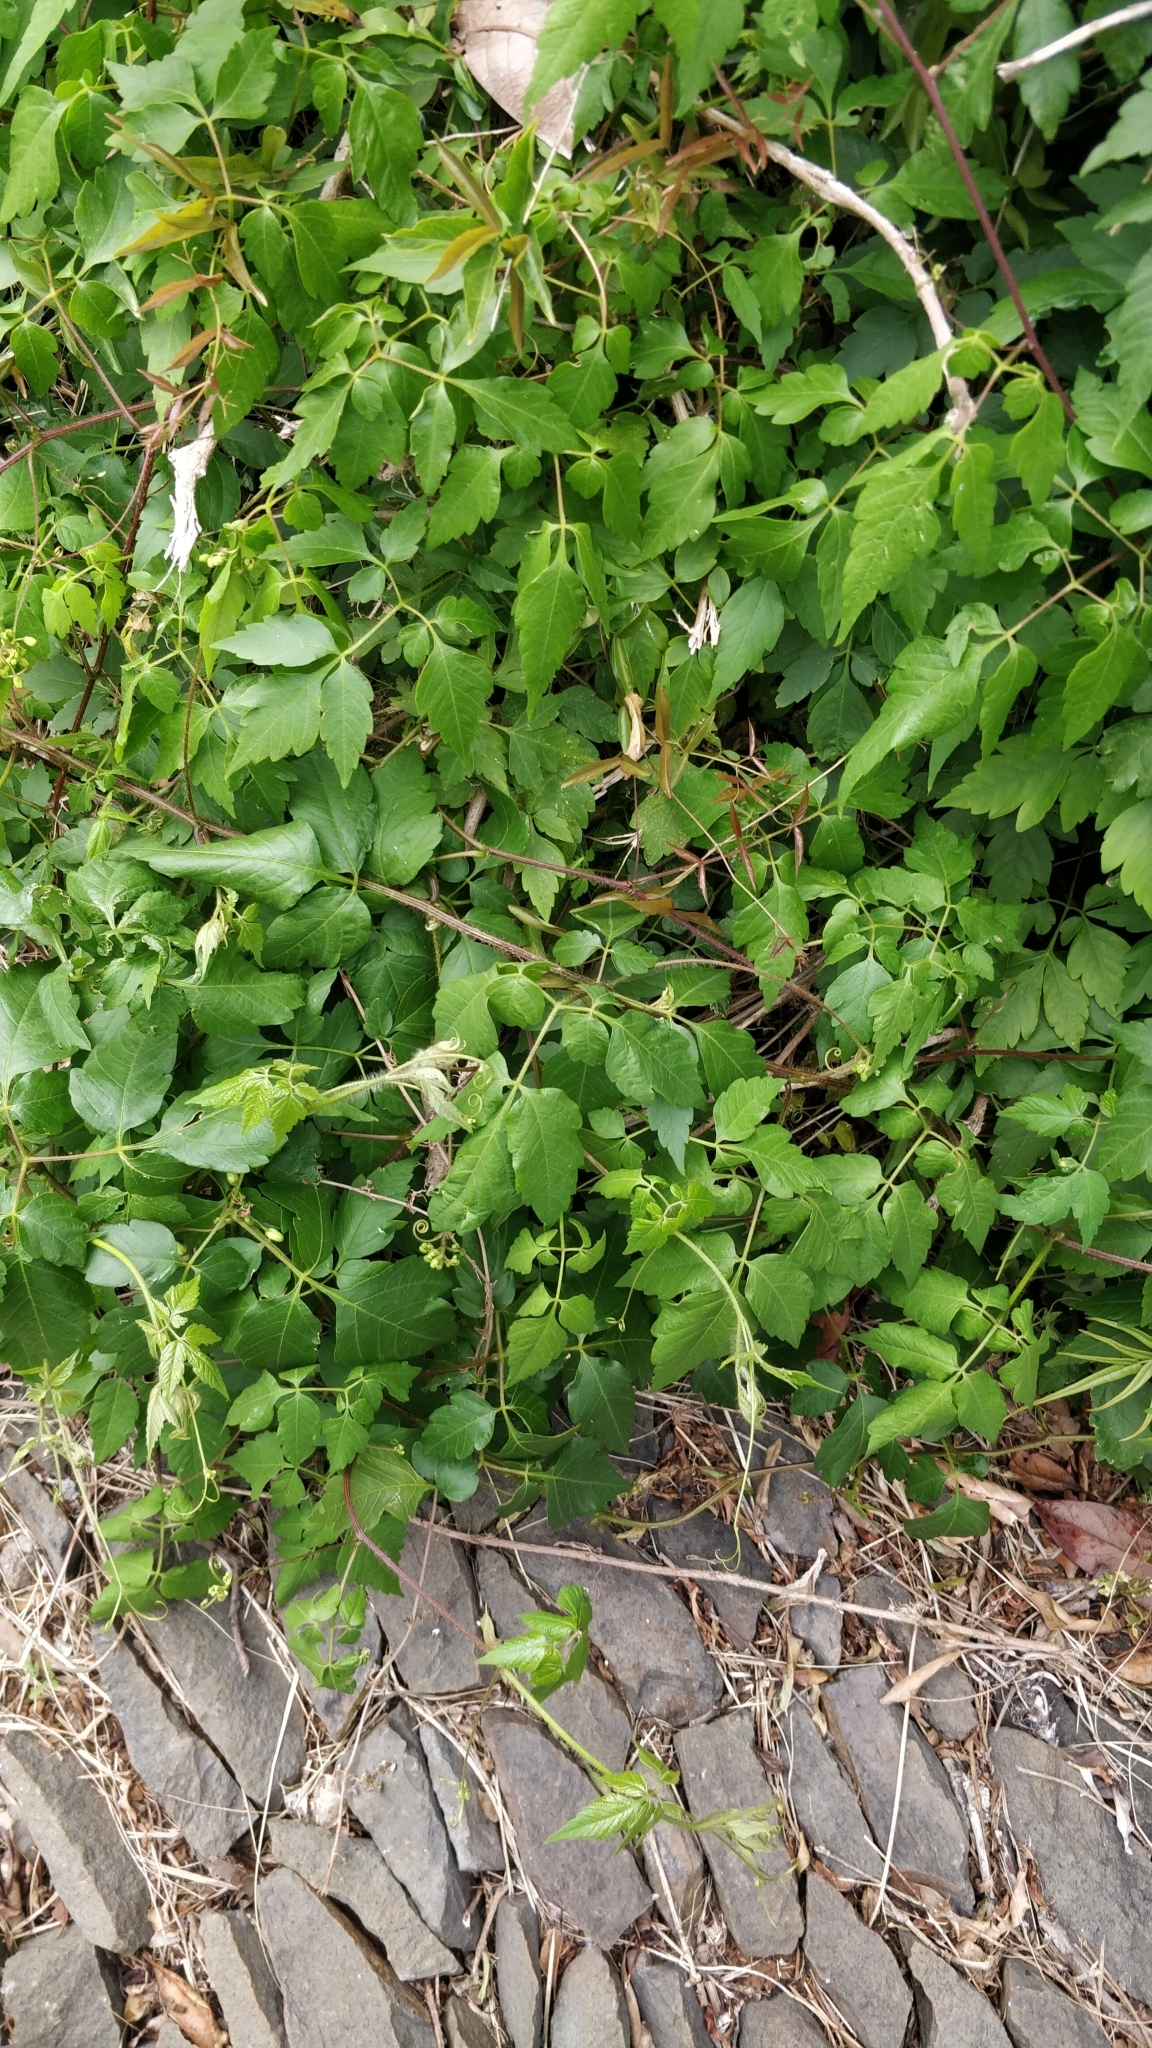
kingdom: Plantae
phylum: Tracheophyta
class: Magnoliopsida
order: Sapindales
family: Sapindaceae
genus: Cardiospermum
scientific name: Cardiospermum grandiflorum
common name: Balloon vine
